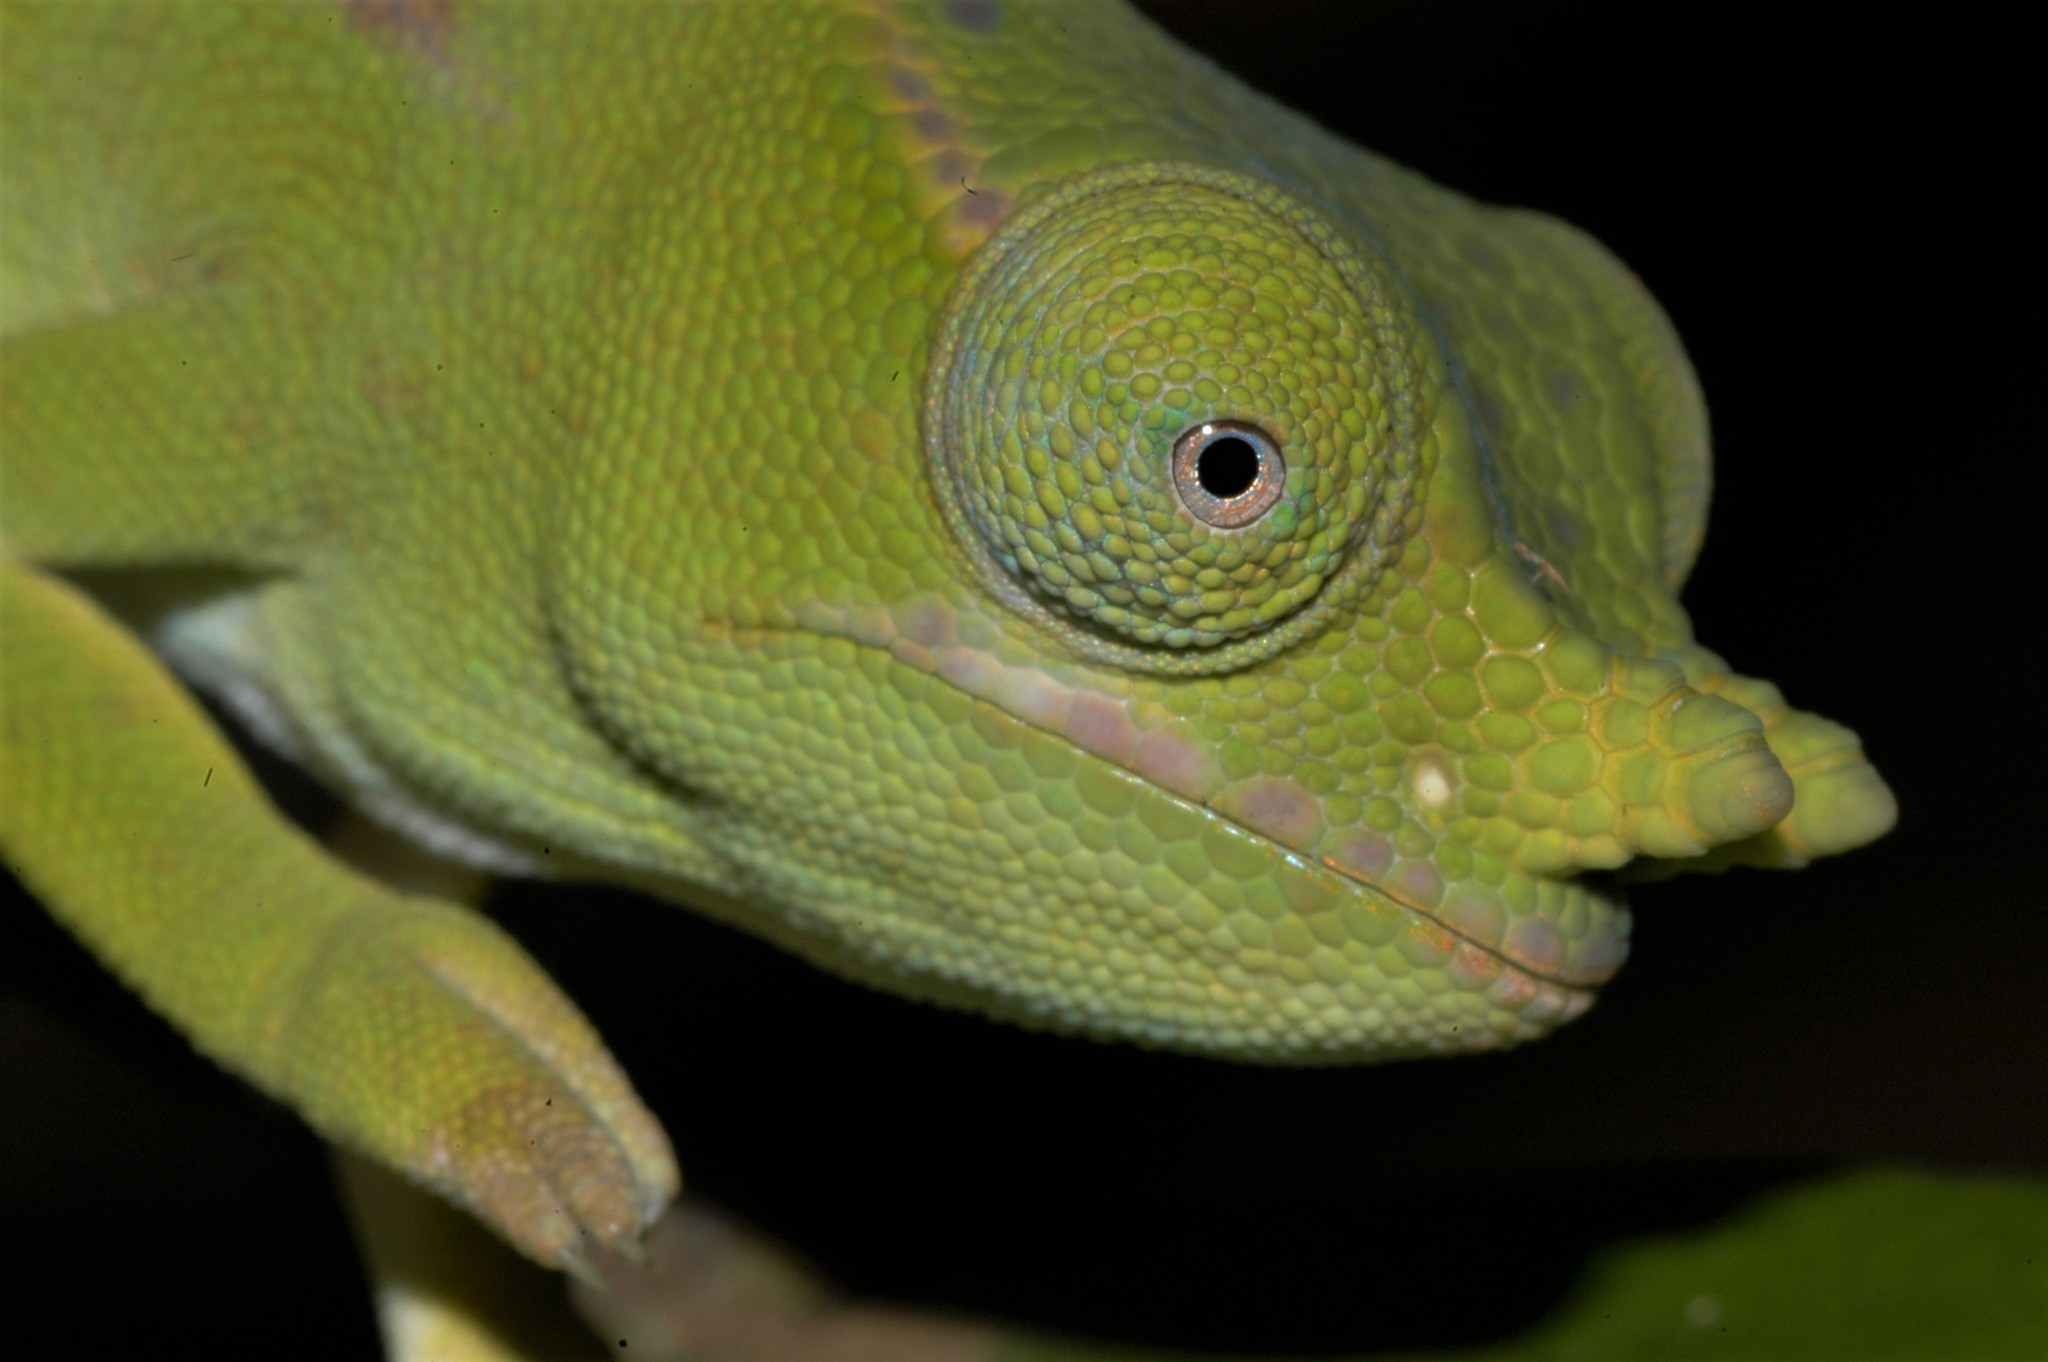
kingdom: Animalia
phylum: Chordata
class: Squamata
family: Chamaeleonidae
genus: Furcifer
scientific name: Furcifer petteri
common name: Petter's chameleon
